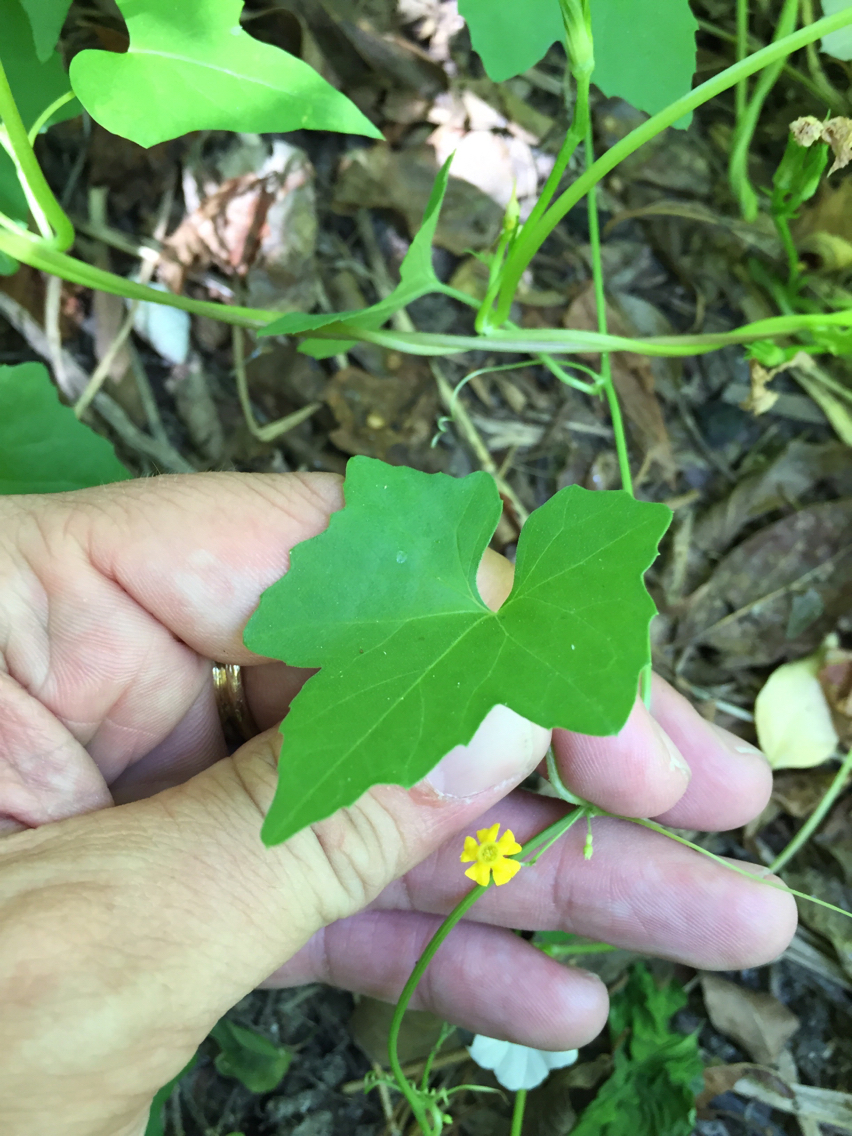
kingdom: Plantae
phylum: Tracheophyta
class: Magnoliopsida
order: Cucurbitales
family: Cucurbitaceae
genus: Melothria
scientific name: Melothria pendula
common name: Creeping-cucumber
